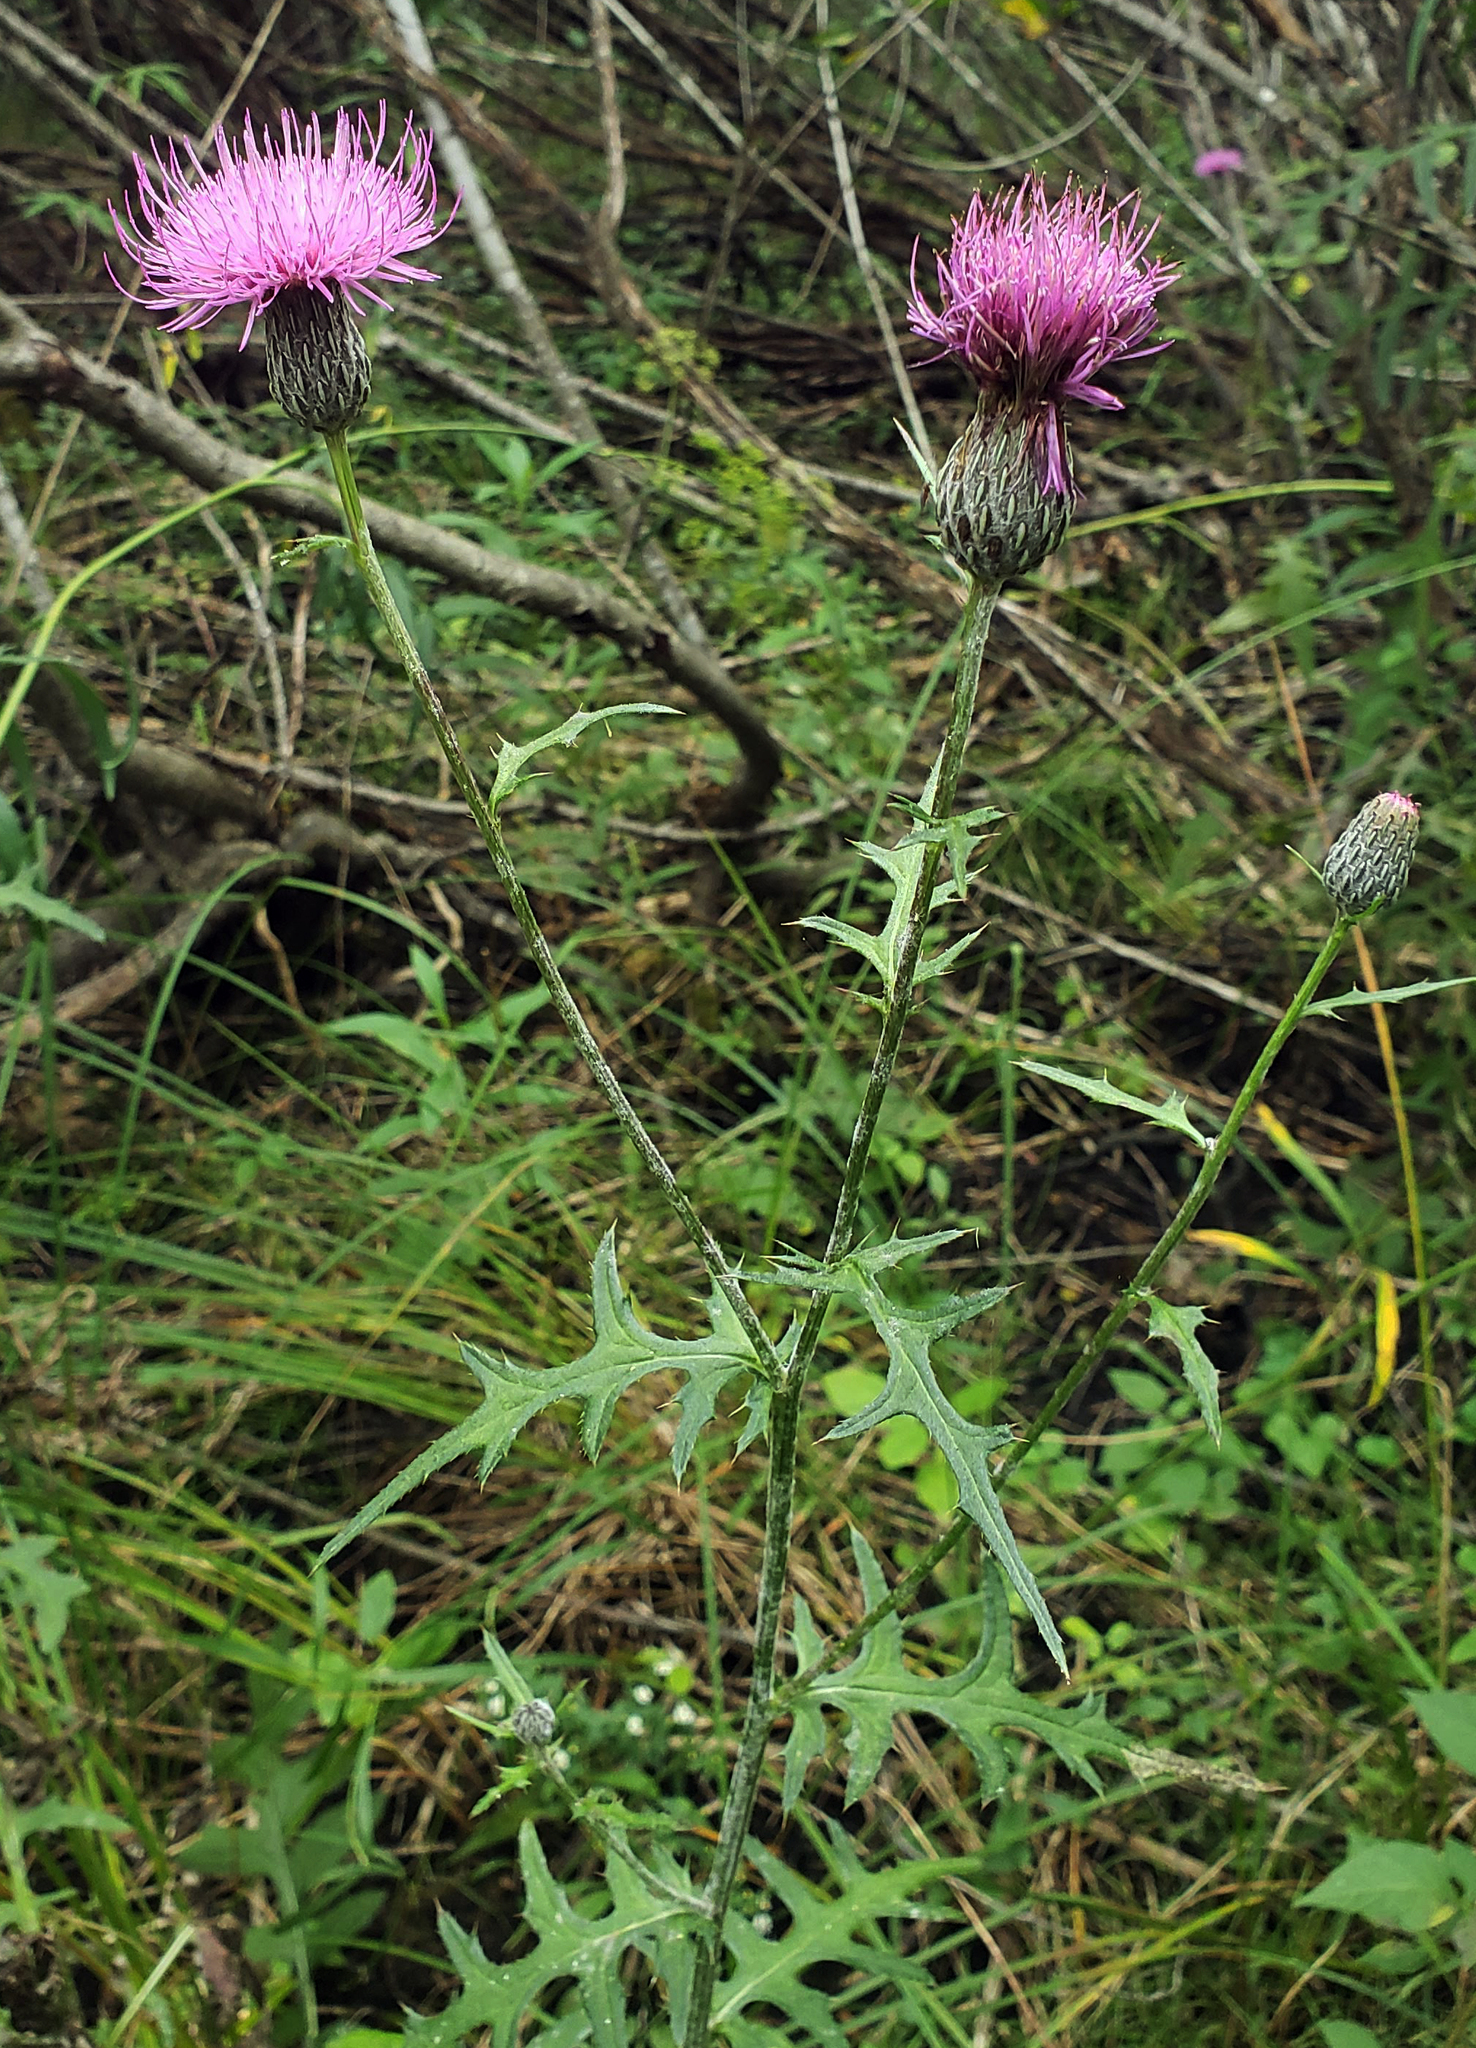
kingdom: Plantae
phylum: Tracheophyta
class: Magnoliopsida
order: Asterales
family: Asteraceae
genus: Cirsium
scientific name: Cirsium muticum
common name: Dunce-nettle
